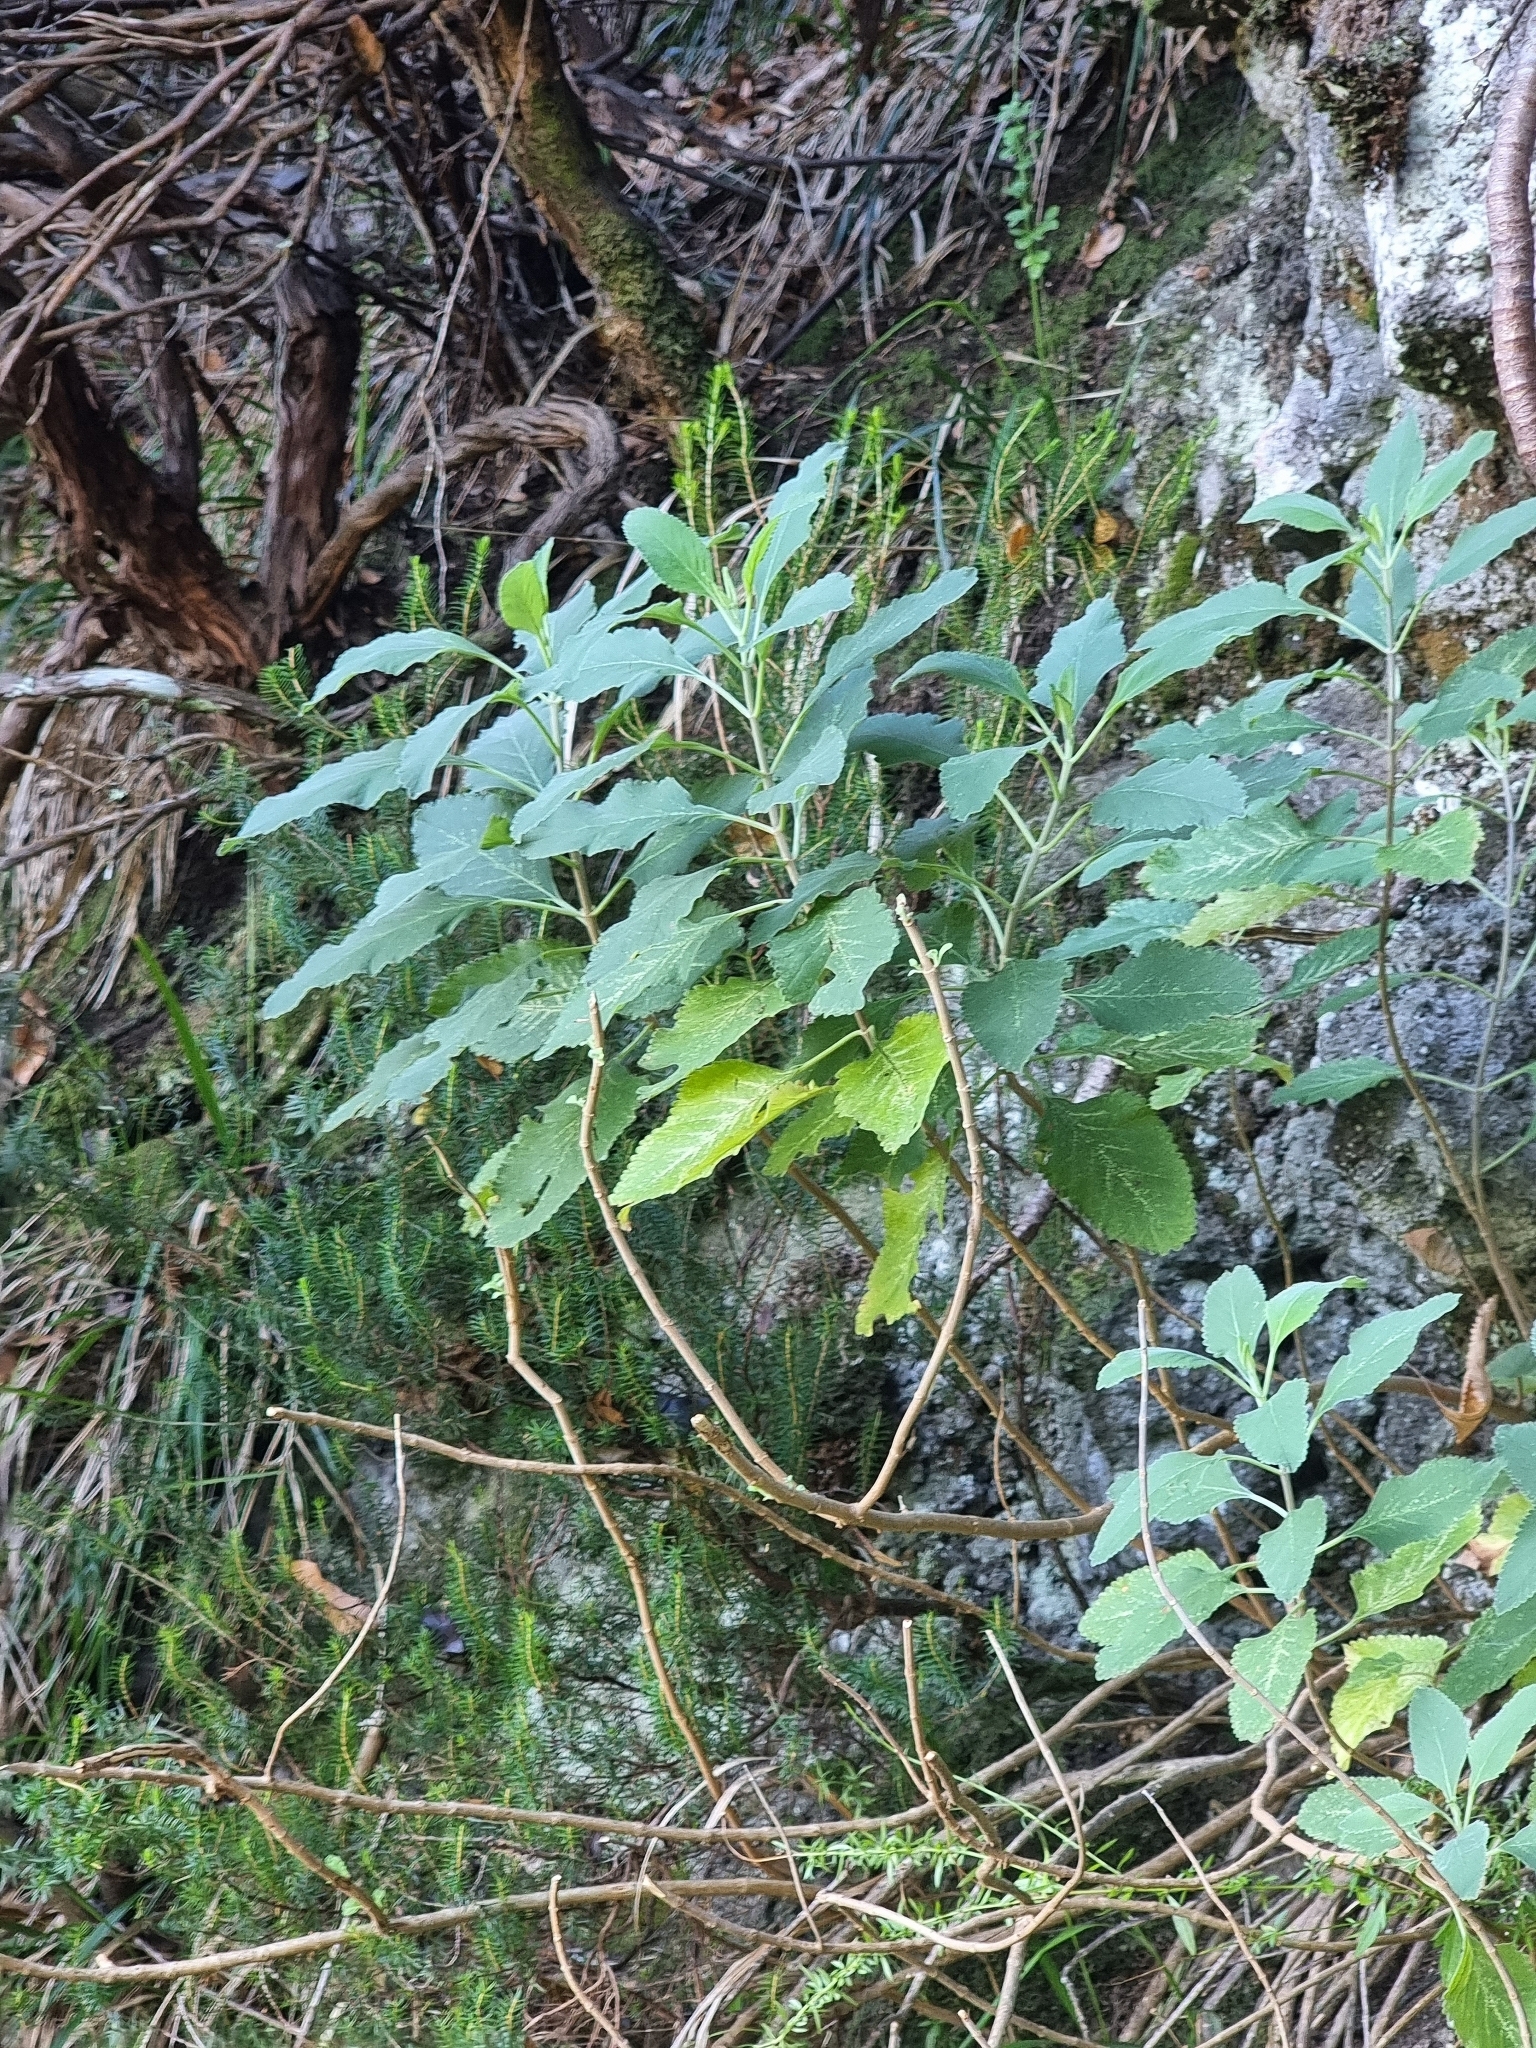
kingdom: Plantae
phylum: Tracheophyta
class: Magnoliopsida
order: Lamiales
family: Lamiaceae
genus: Teucrium
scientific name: Teucrium betonicum
